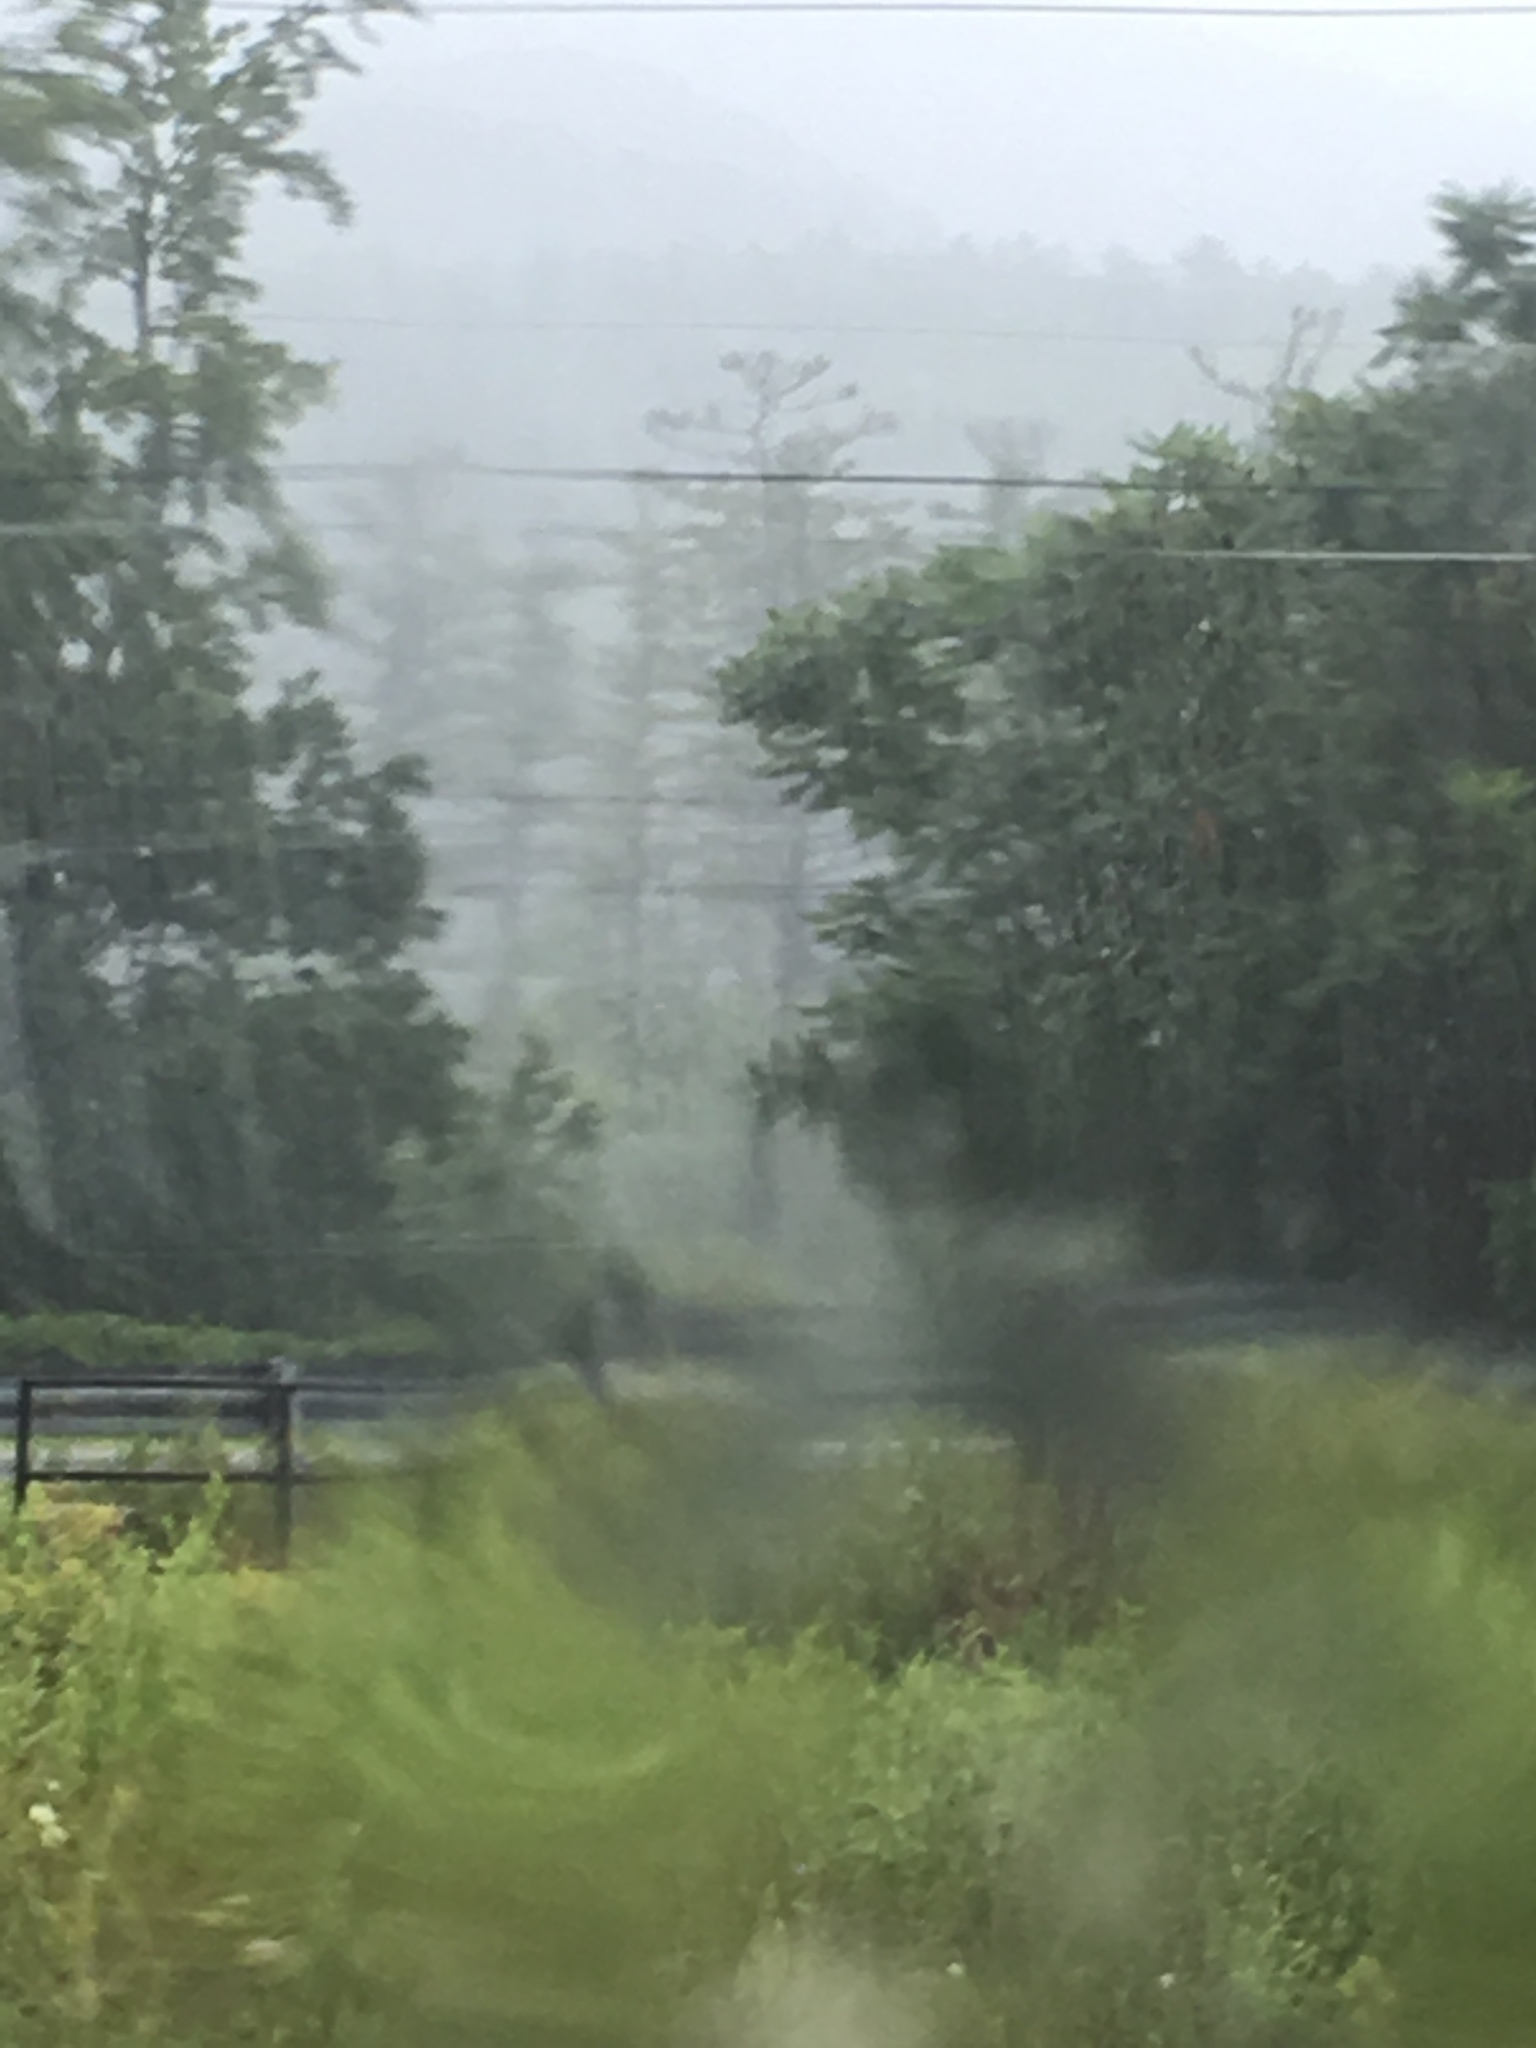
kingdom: Plantae
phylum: Tracheophyta
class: Pinopsida
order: Pinales
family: Pinaceae
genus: Pinus
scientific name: Pinus strobus
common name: Weymouth pine
